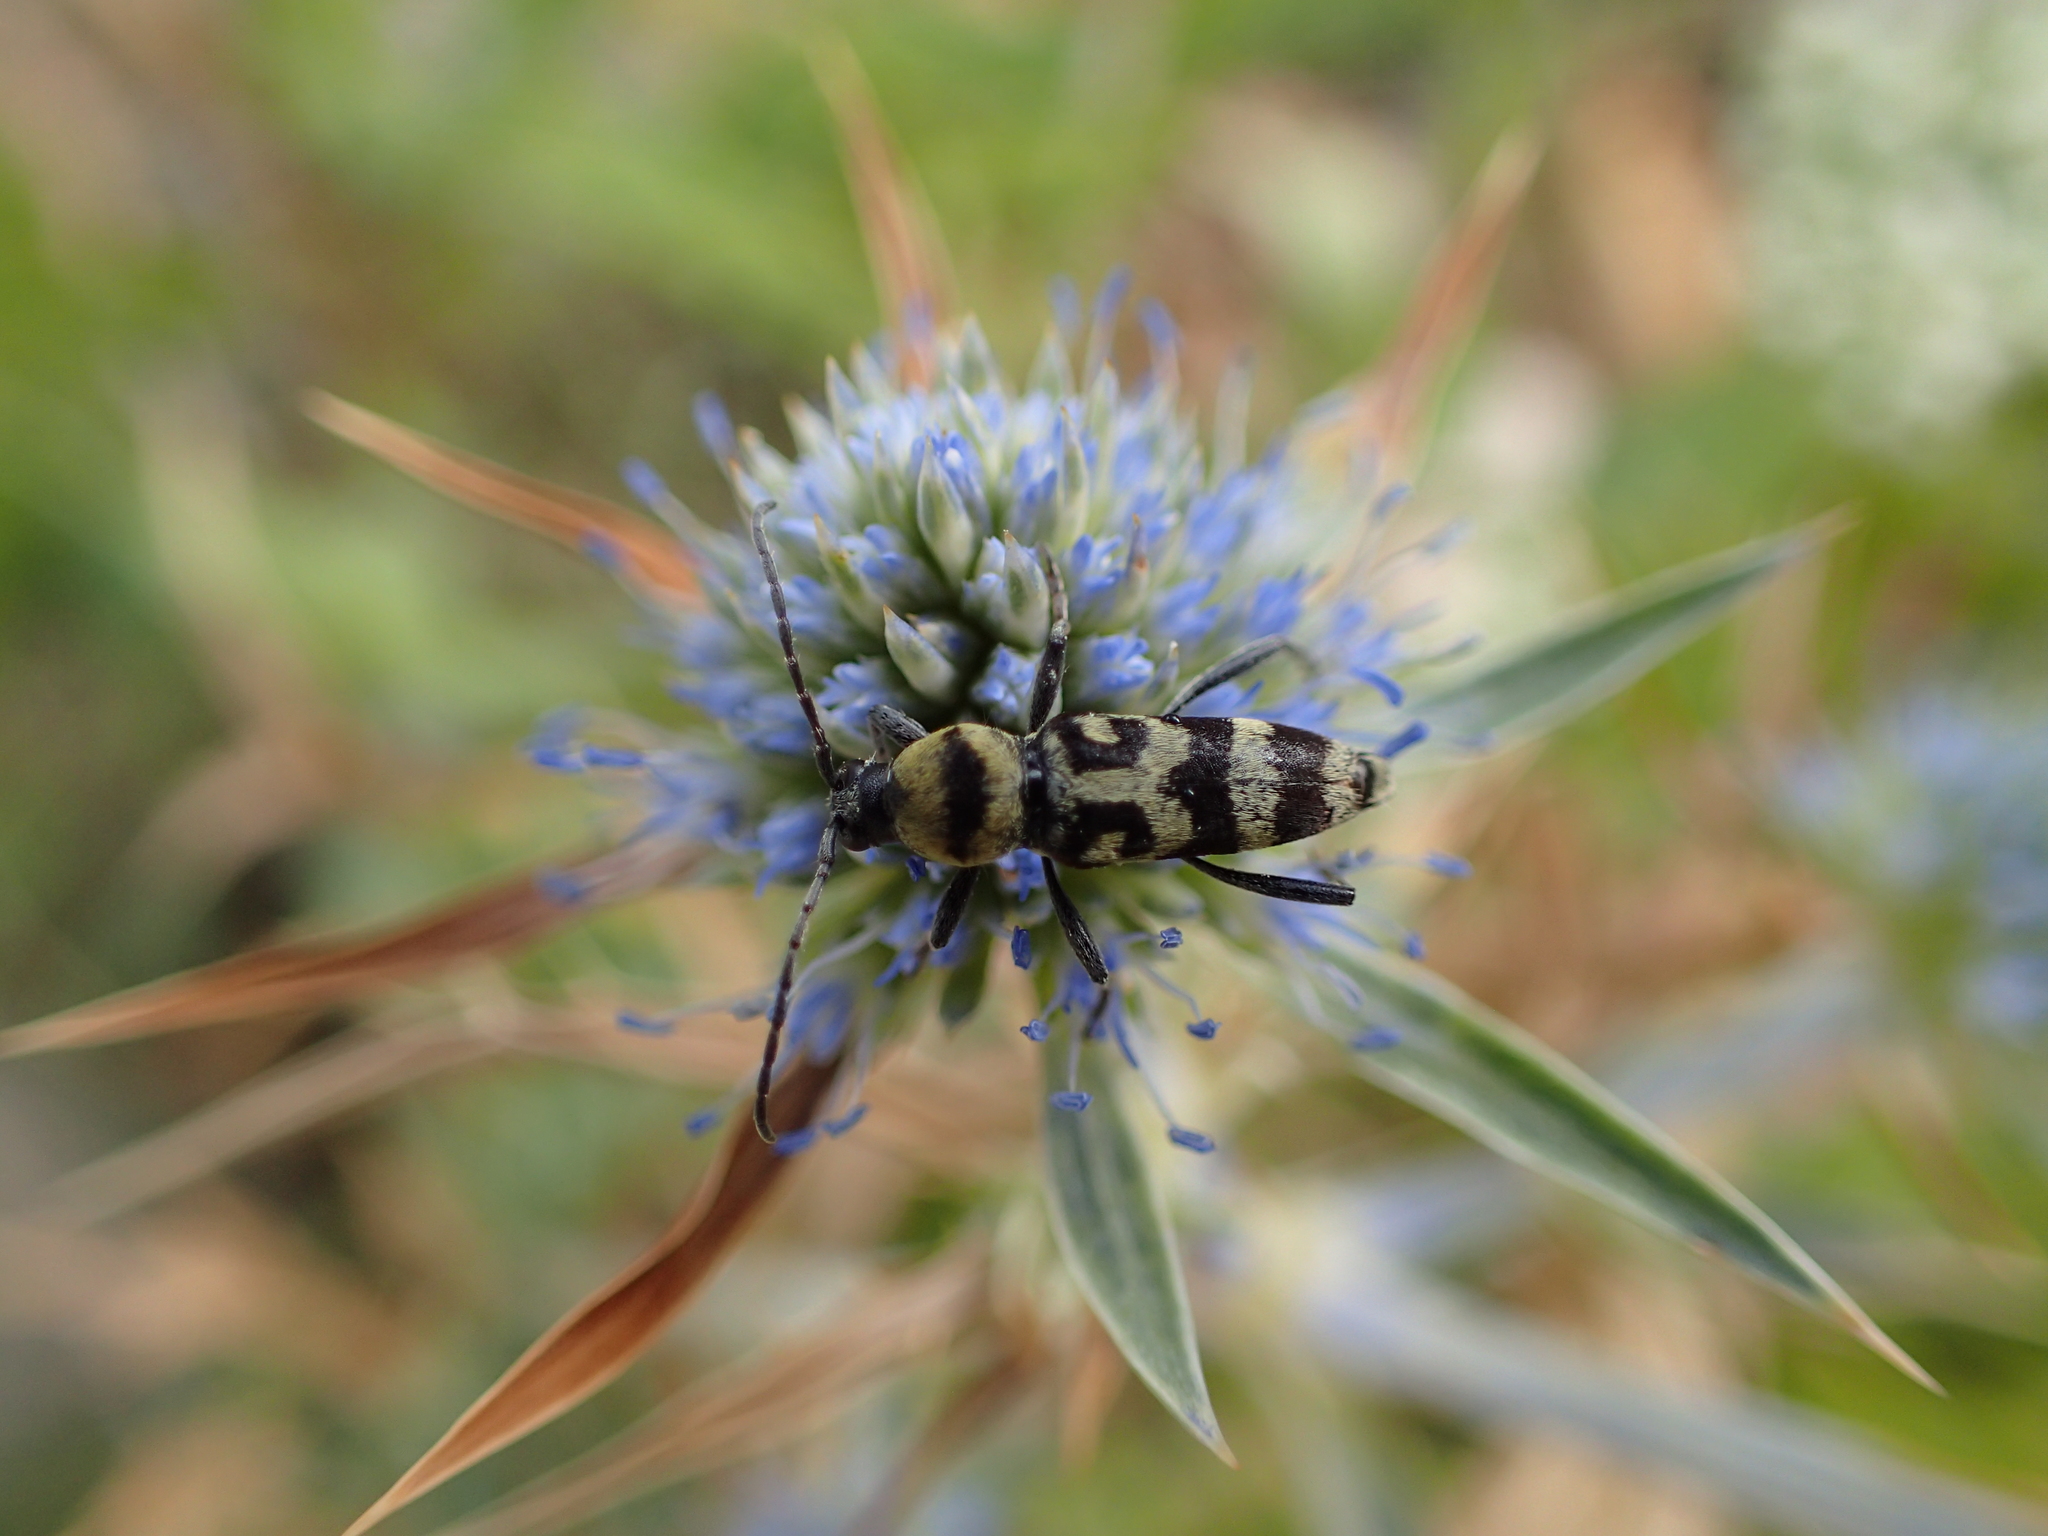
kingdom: Animalia
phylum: Arthropoda
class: Insecta
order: Coleoptera
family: Cerambycidae
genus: Chlorophorus
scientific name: Chlorophorus varius
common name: Grape wood borer
